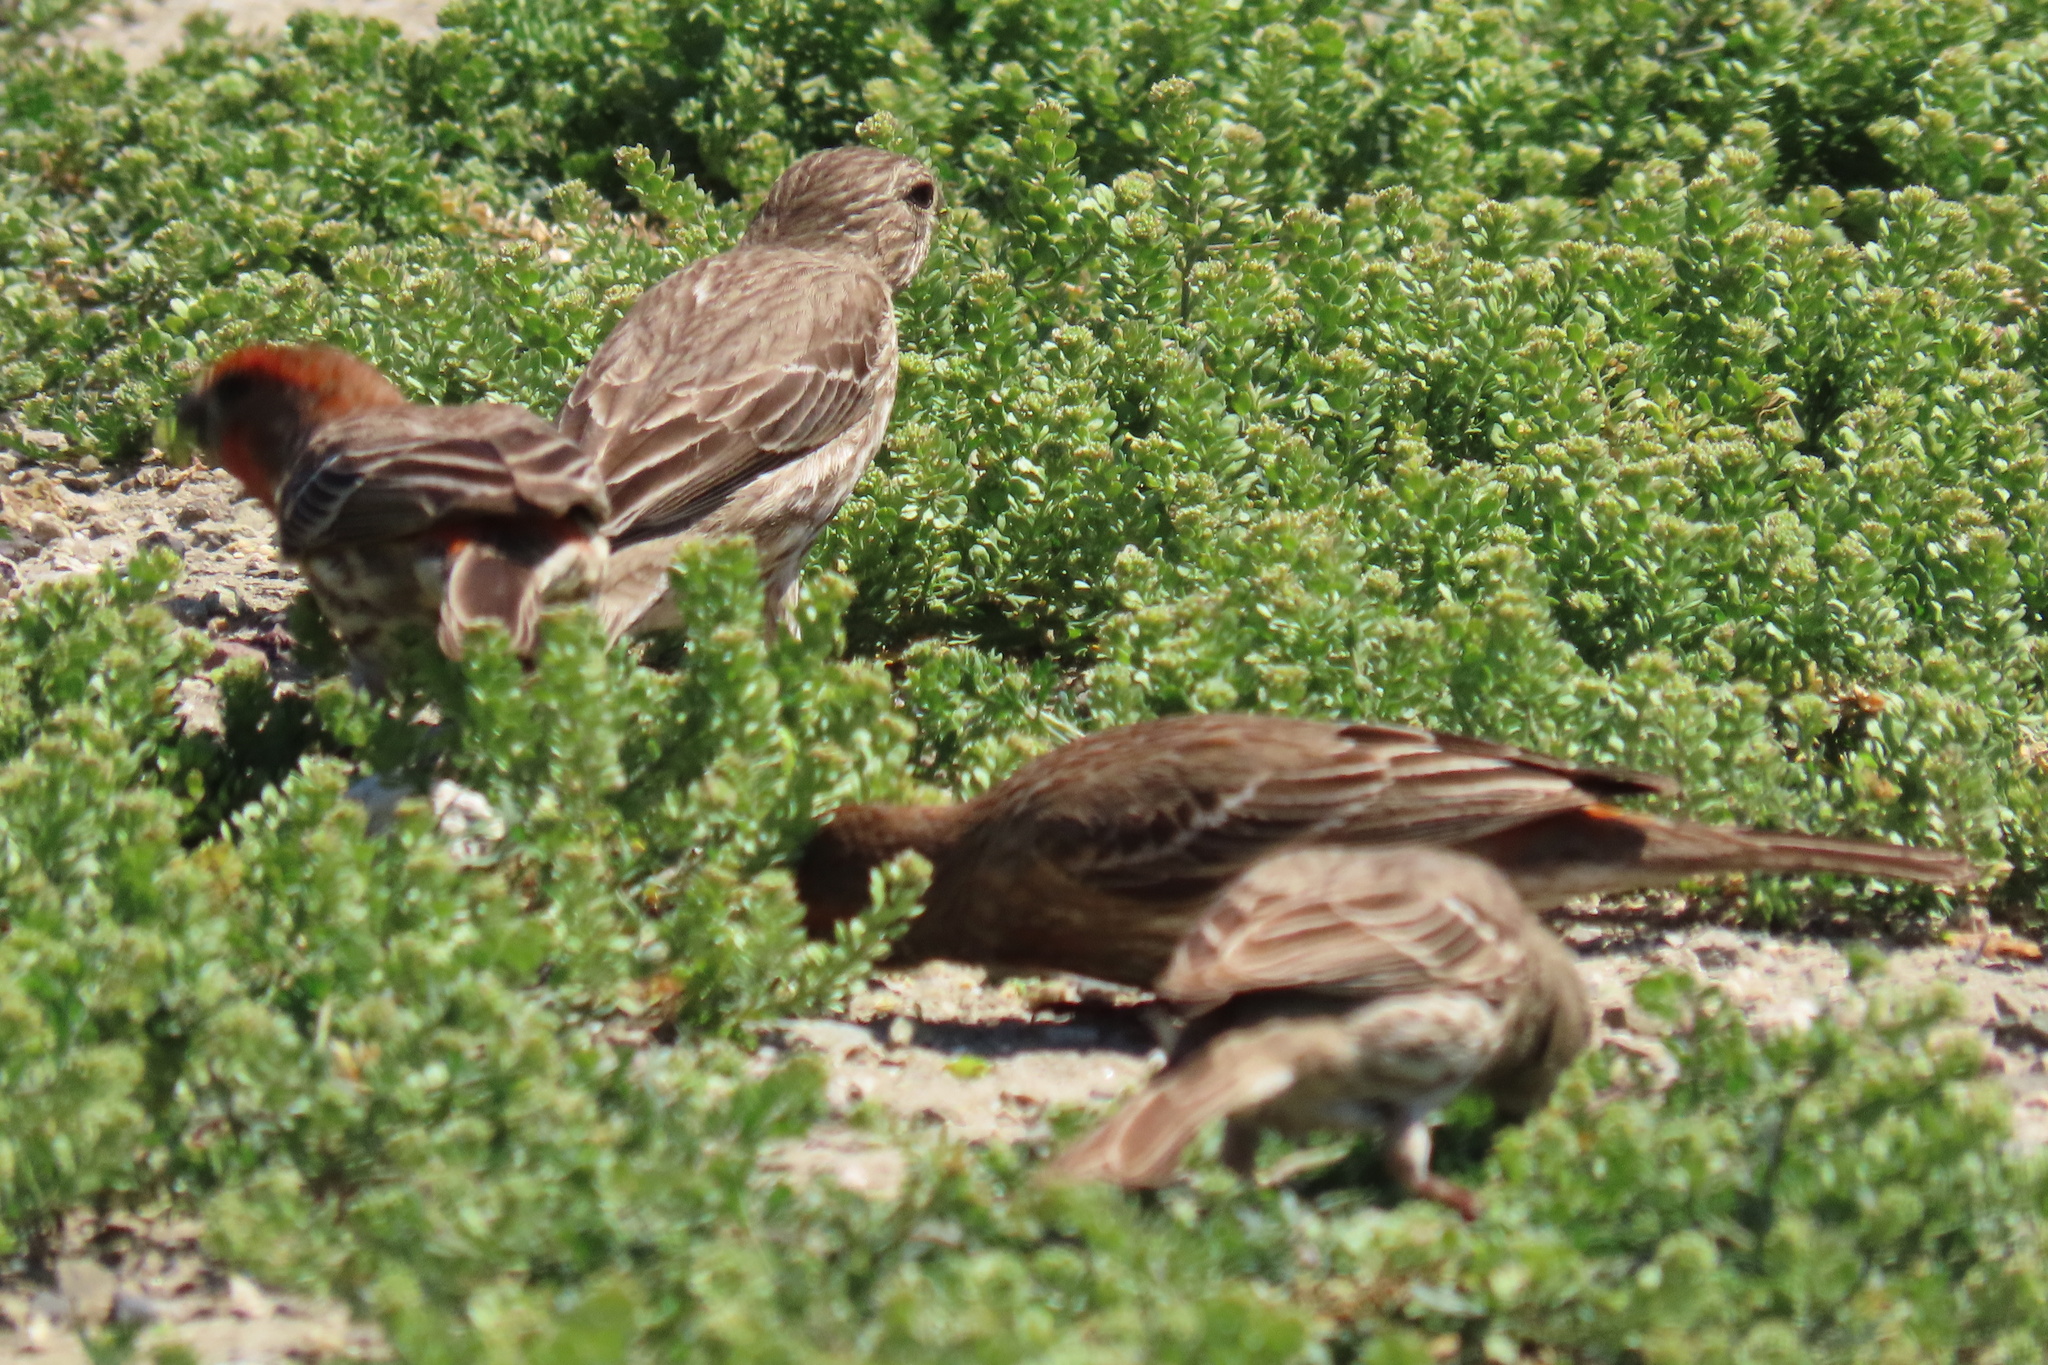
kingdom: Animalia
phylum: Chordata
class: Aves
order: Passeriformes
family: Fringillidae
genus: Haemorhous
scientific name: Haemorhous mexicanus
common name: House finch
